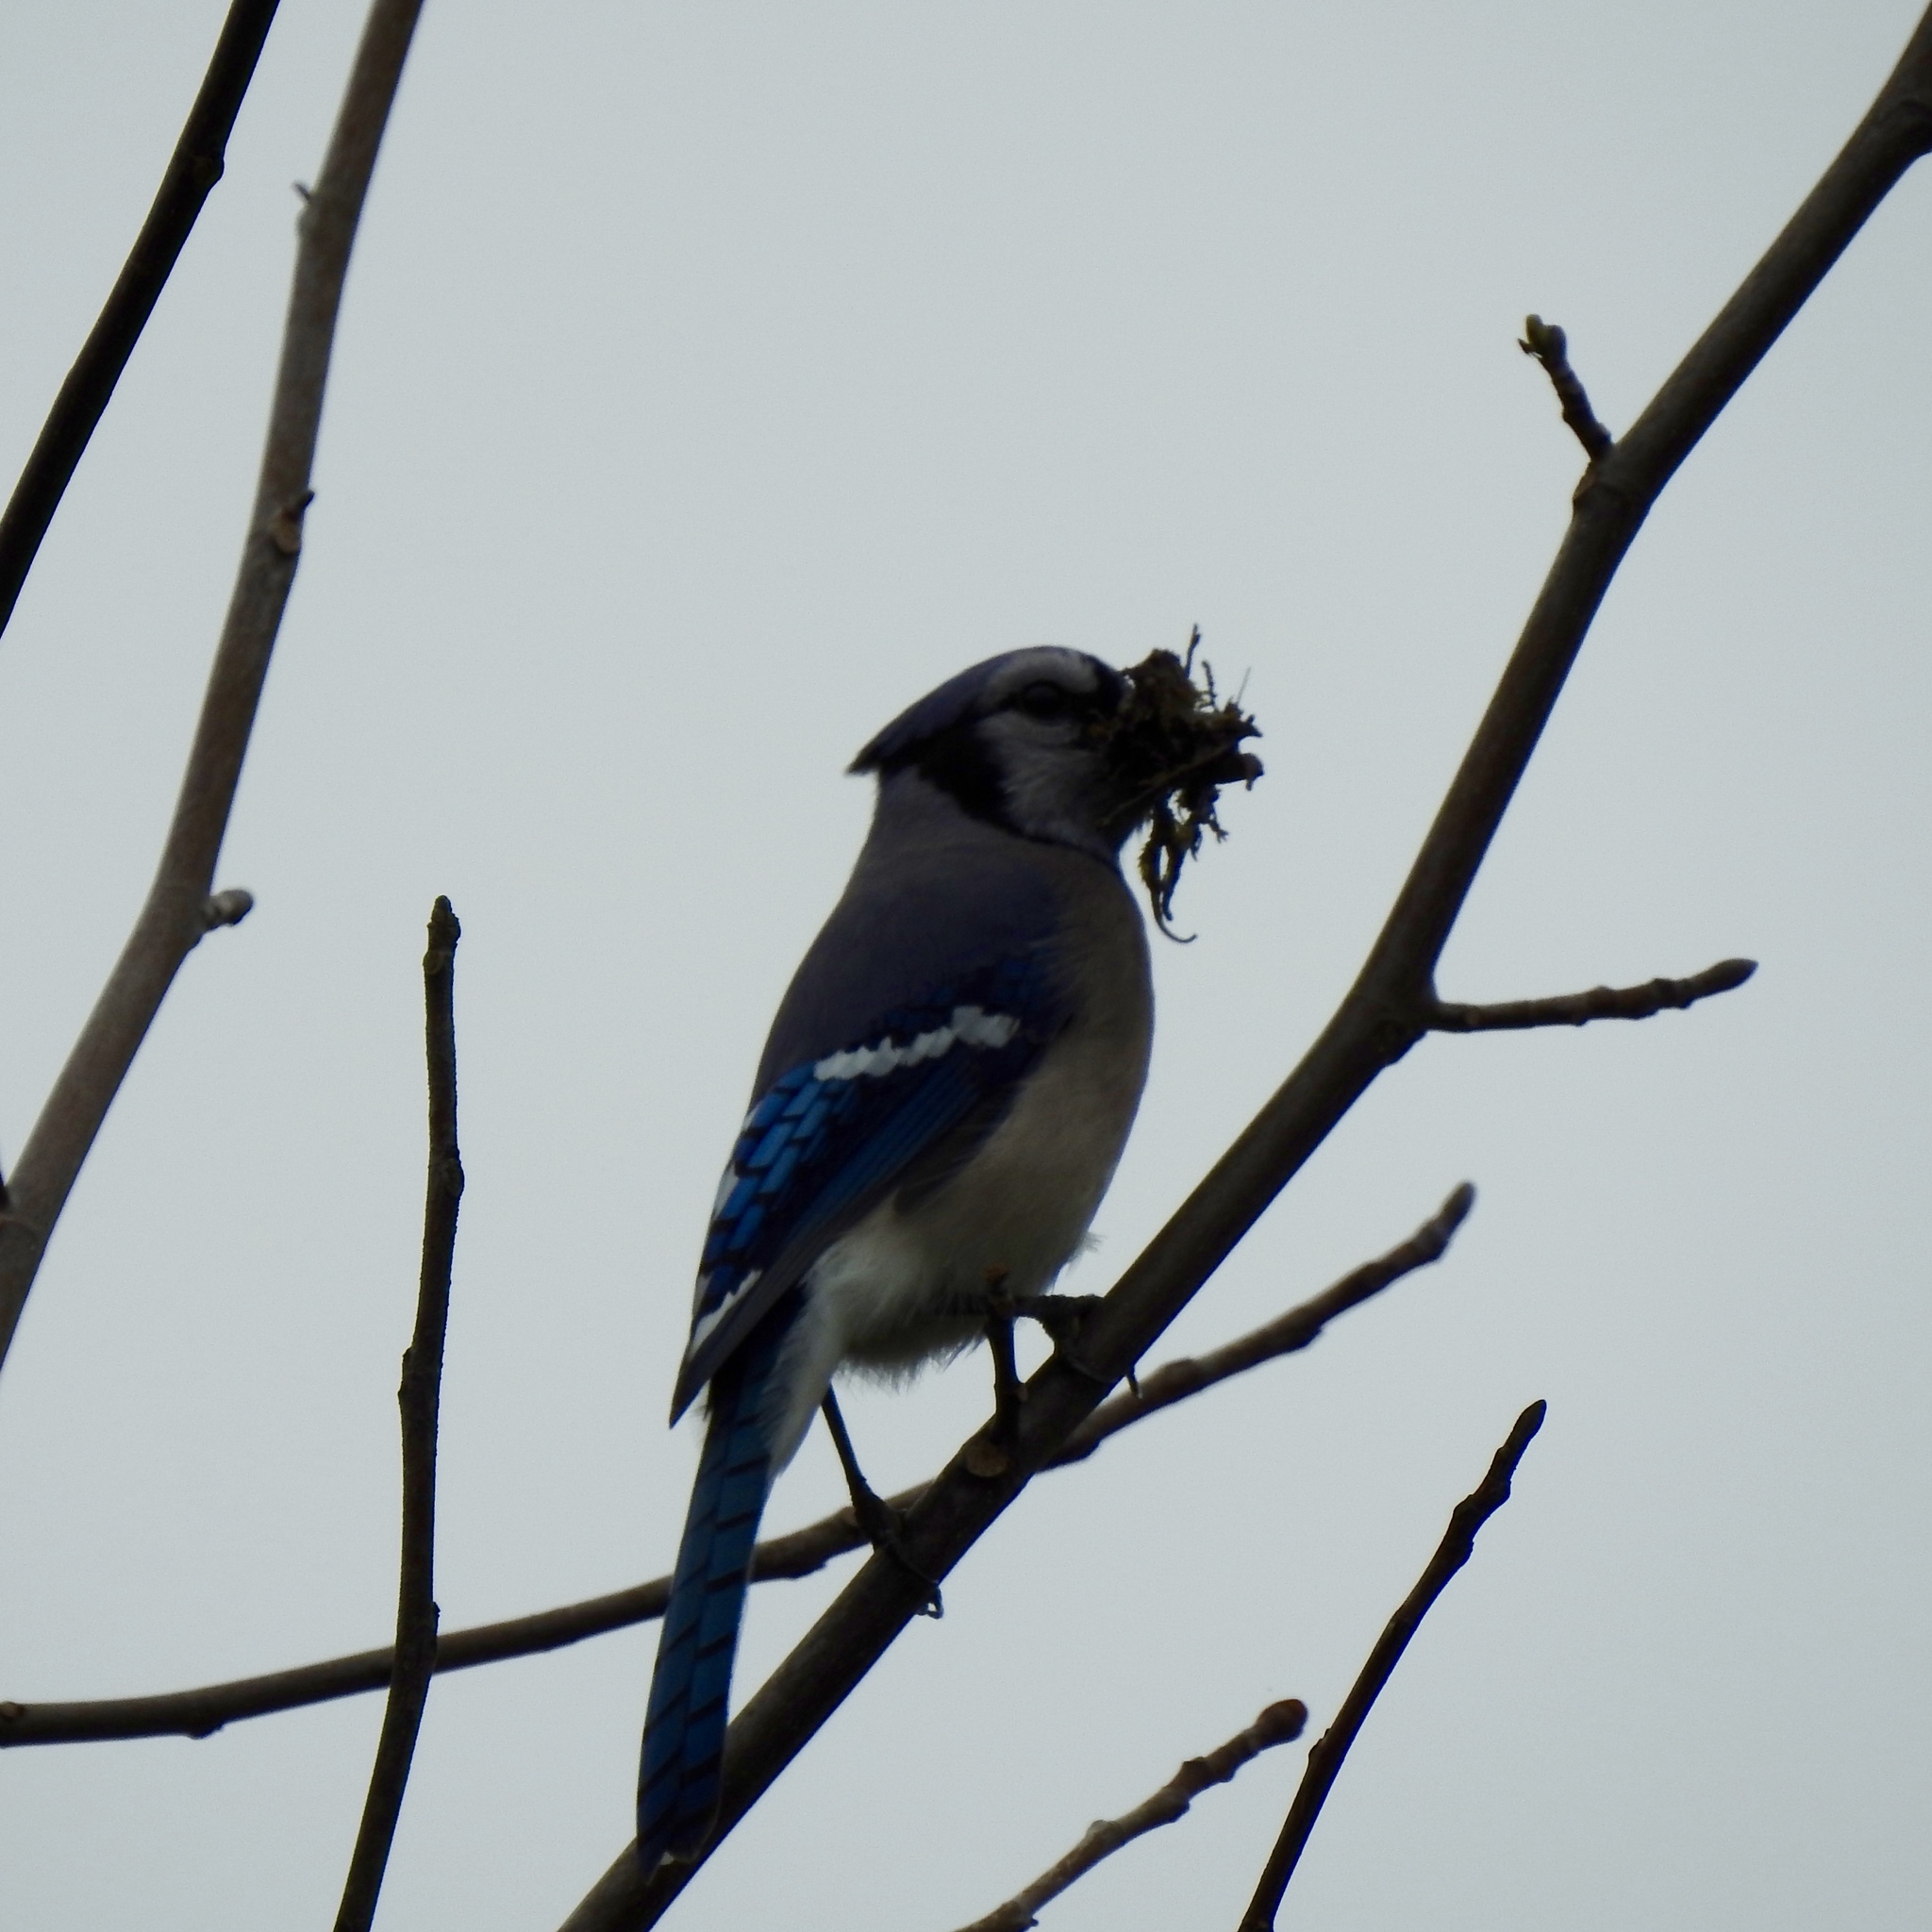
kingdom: Animalia
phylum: Chordata
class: Aves
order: Passeriformes
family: Corvidae
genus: Cyanocitta
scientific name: Cyanocitta cristata
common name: Blue jay
